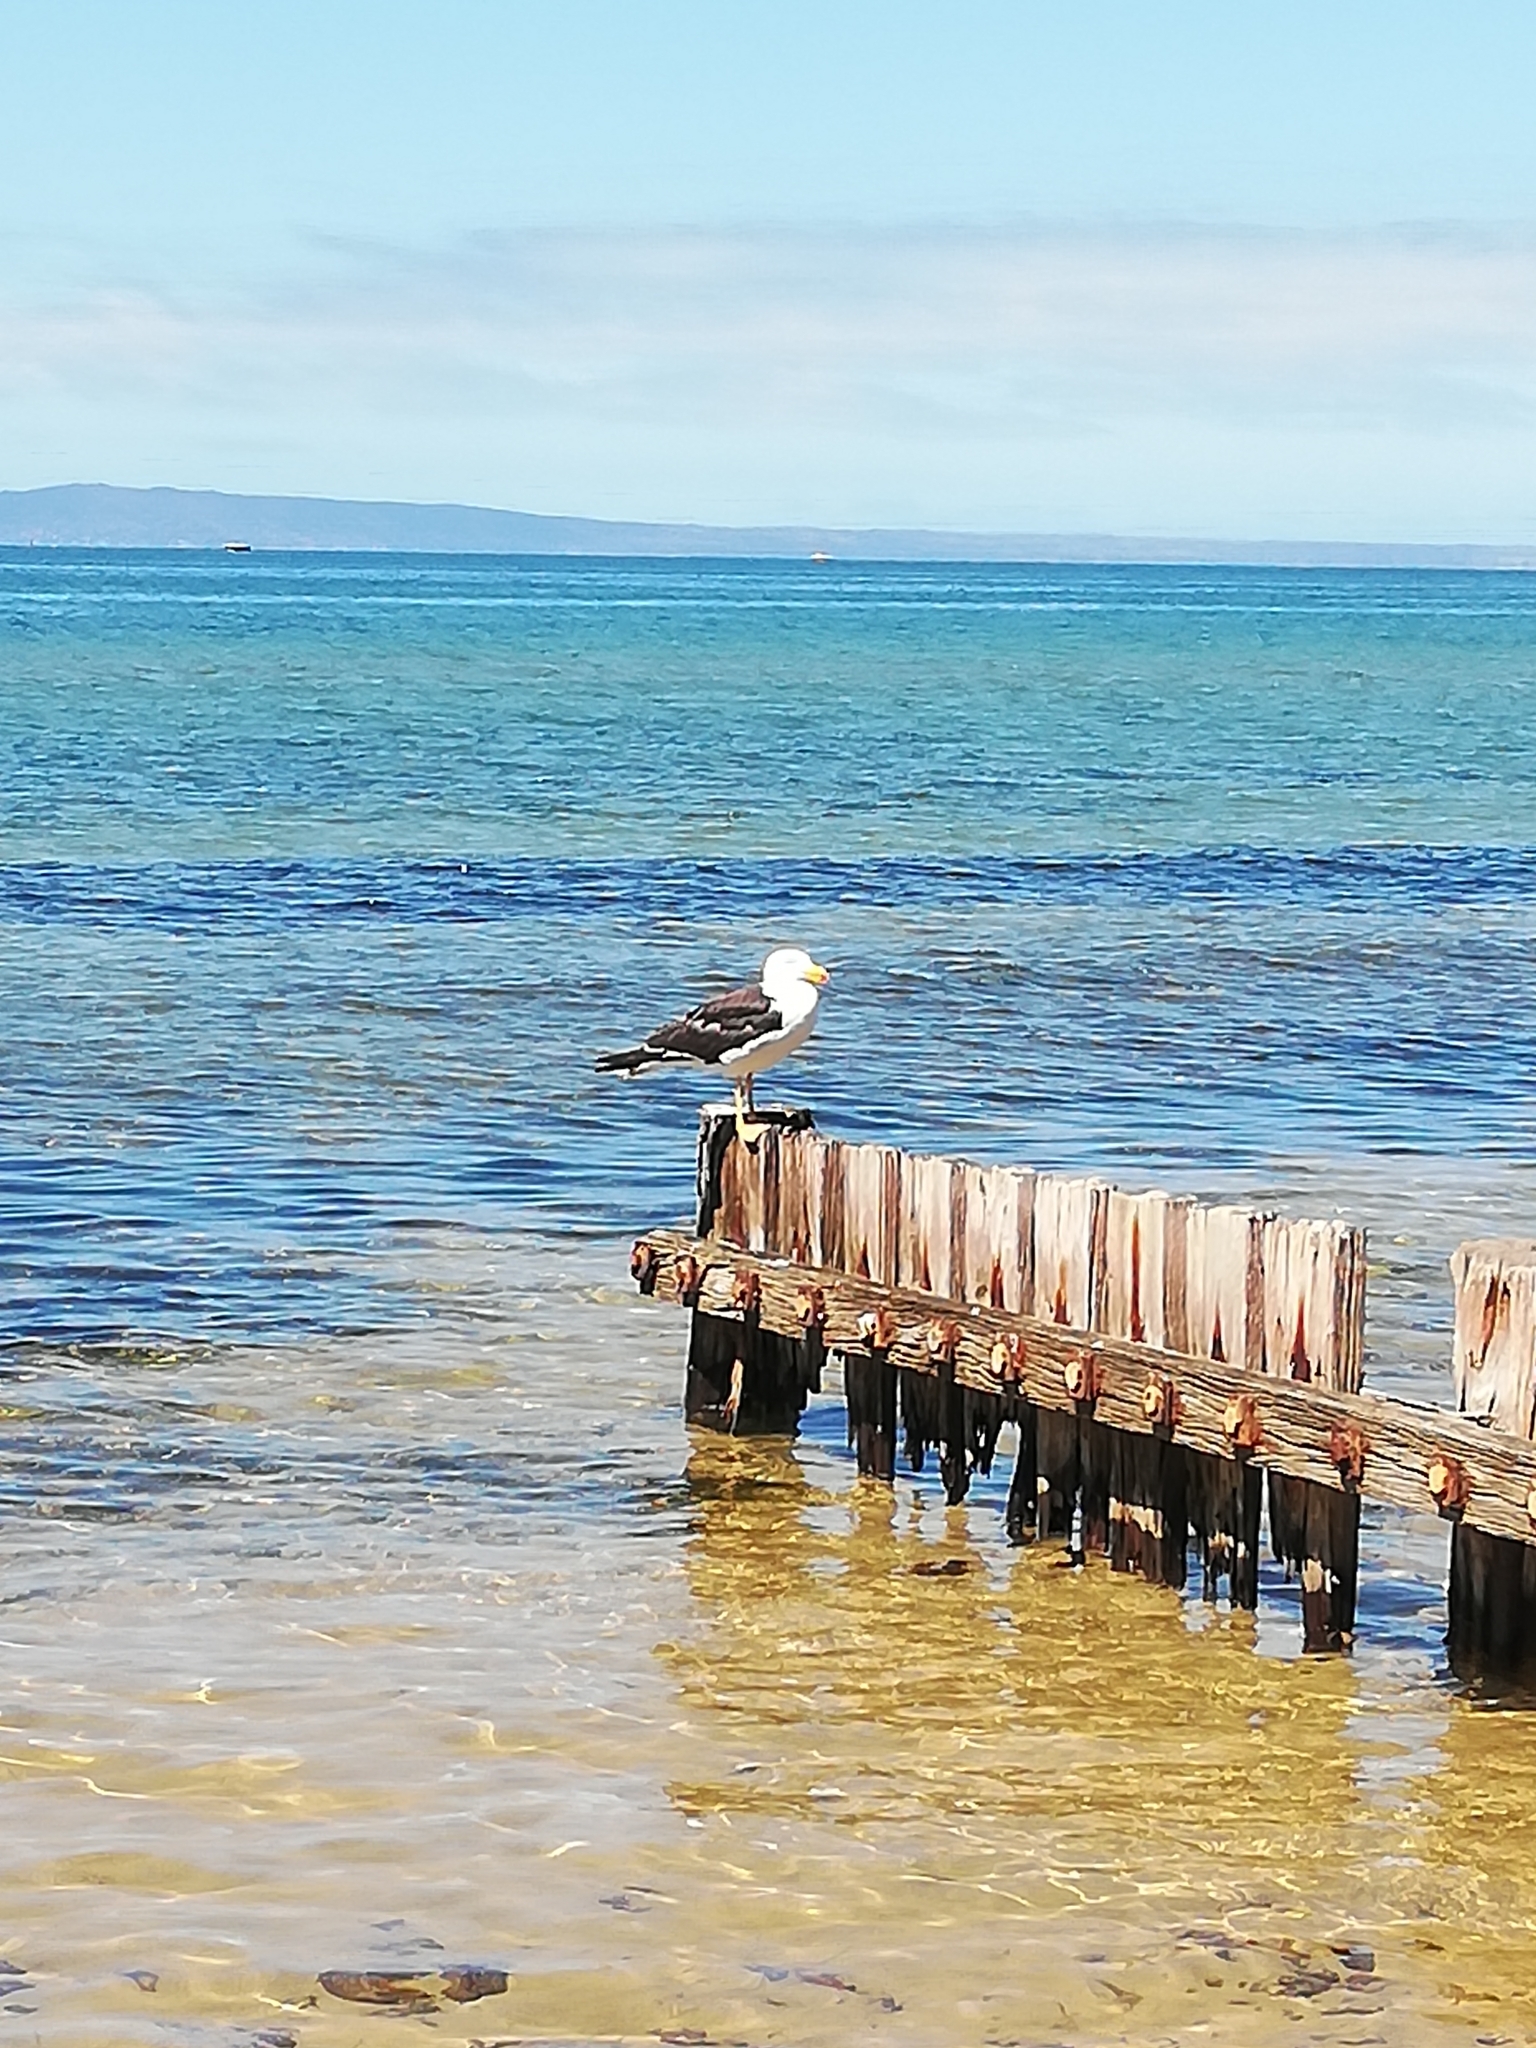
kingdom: Animalia
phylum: Chordata
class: Aves
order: Charadriiformes
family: Laridae
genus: Larus
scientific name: Larus pacificus
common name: Pacific gull
